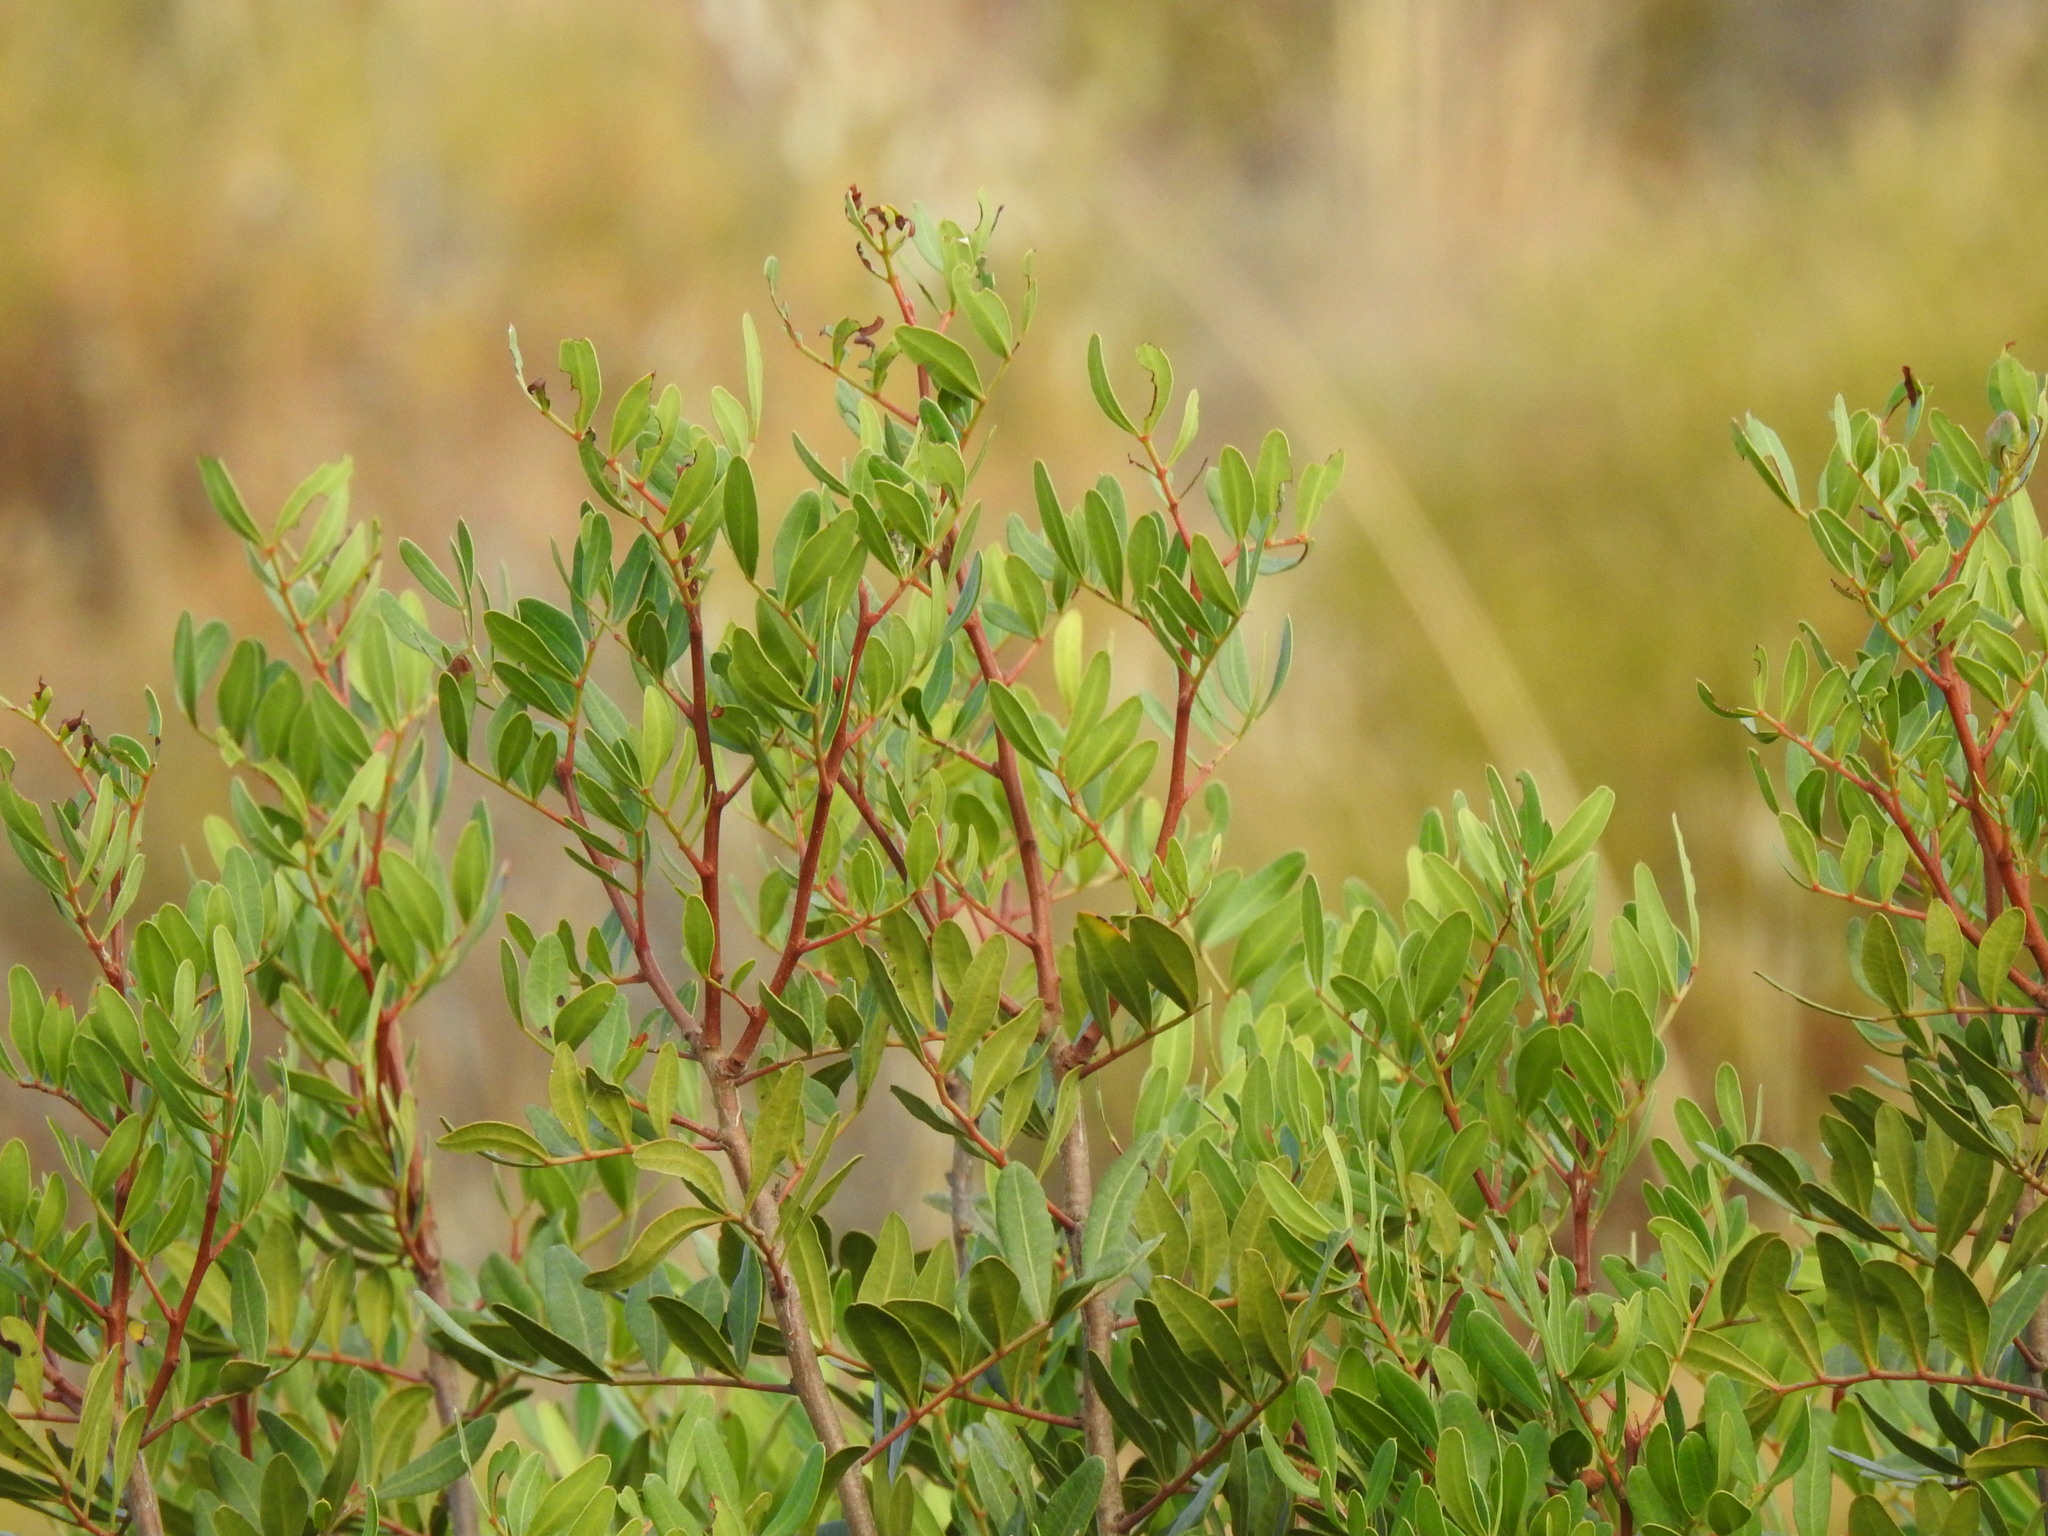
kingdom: Plantae
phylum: Tracheophyta
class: Magnoliopsida
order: Sapindales
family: Anacardiaceae
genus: Pistacia
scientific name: Pistacia lentiscus
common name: Lentisk
